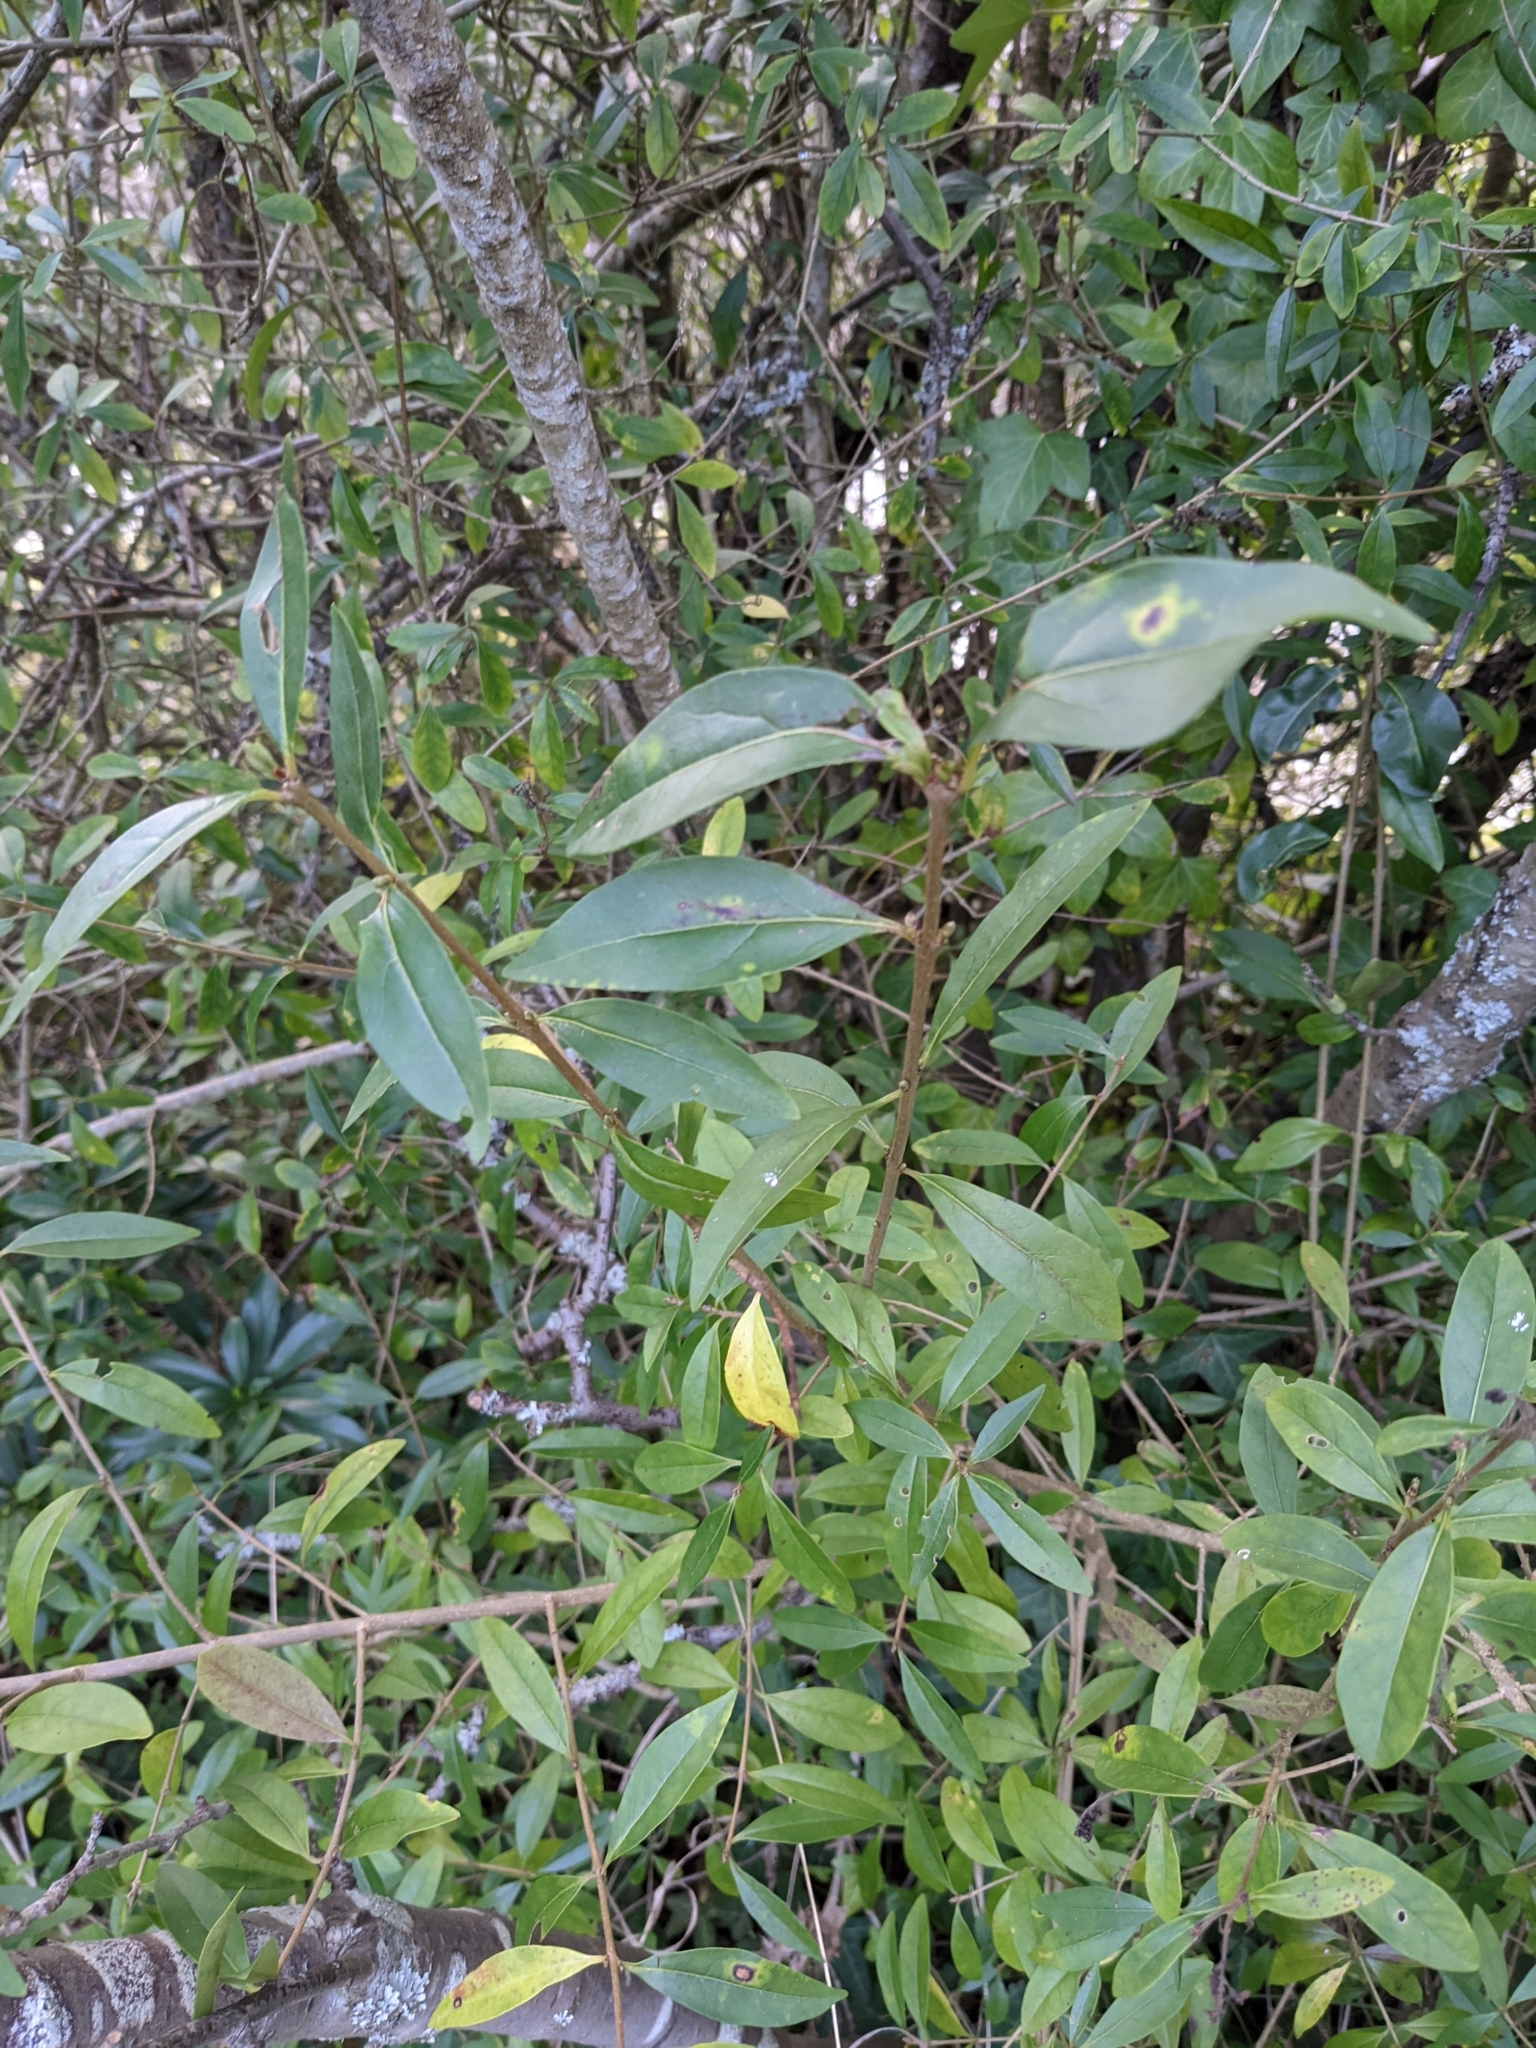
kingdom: Plantae
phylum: Tracheophyta
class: Magnoliopsida
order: Lamiales
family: Oleaceae
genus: Ligustrum
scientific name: Ligustrum vulgare
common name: Wild privet
